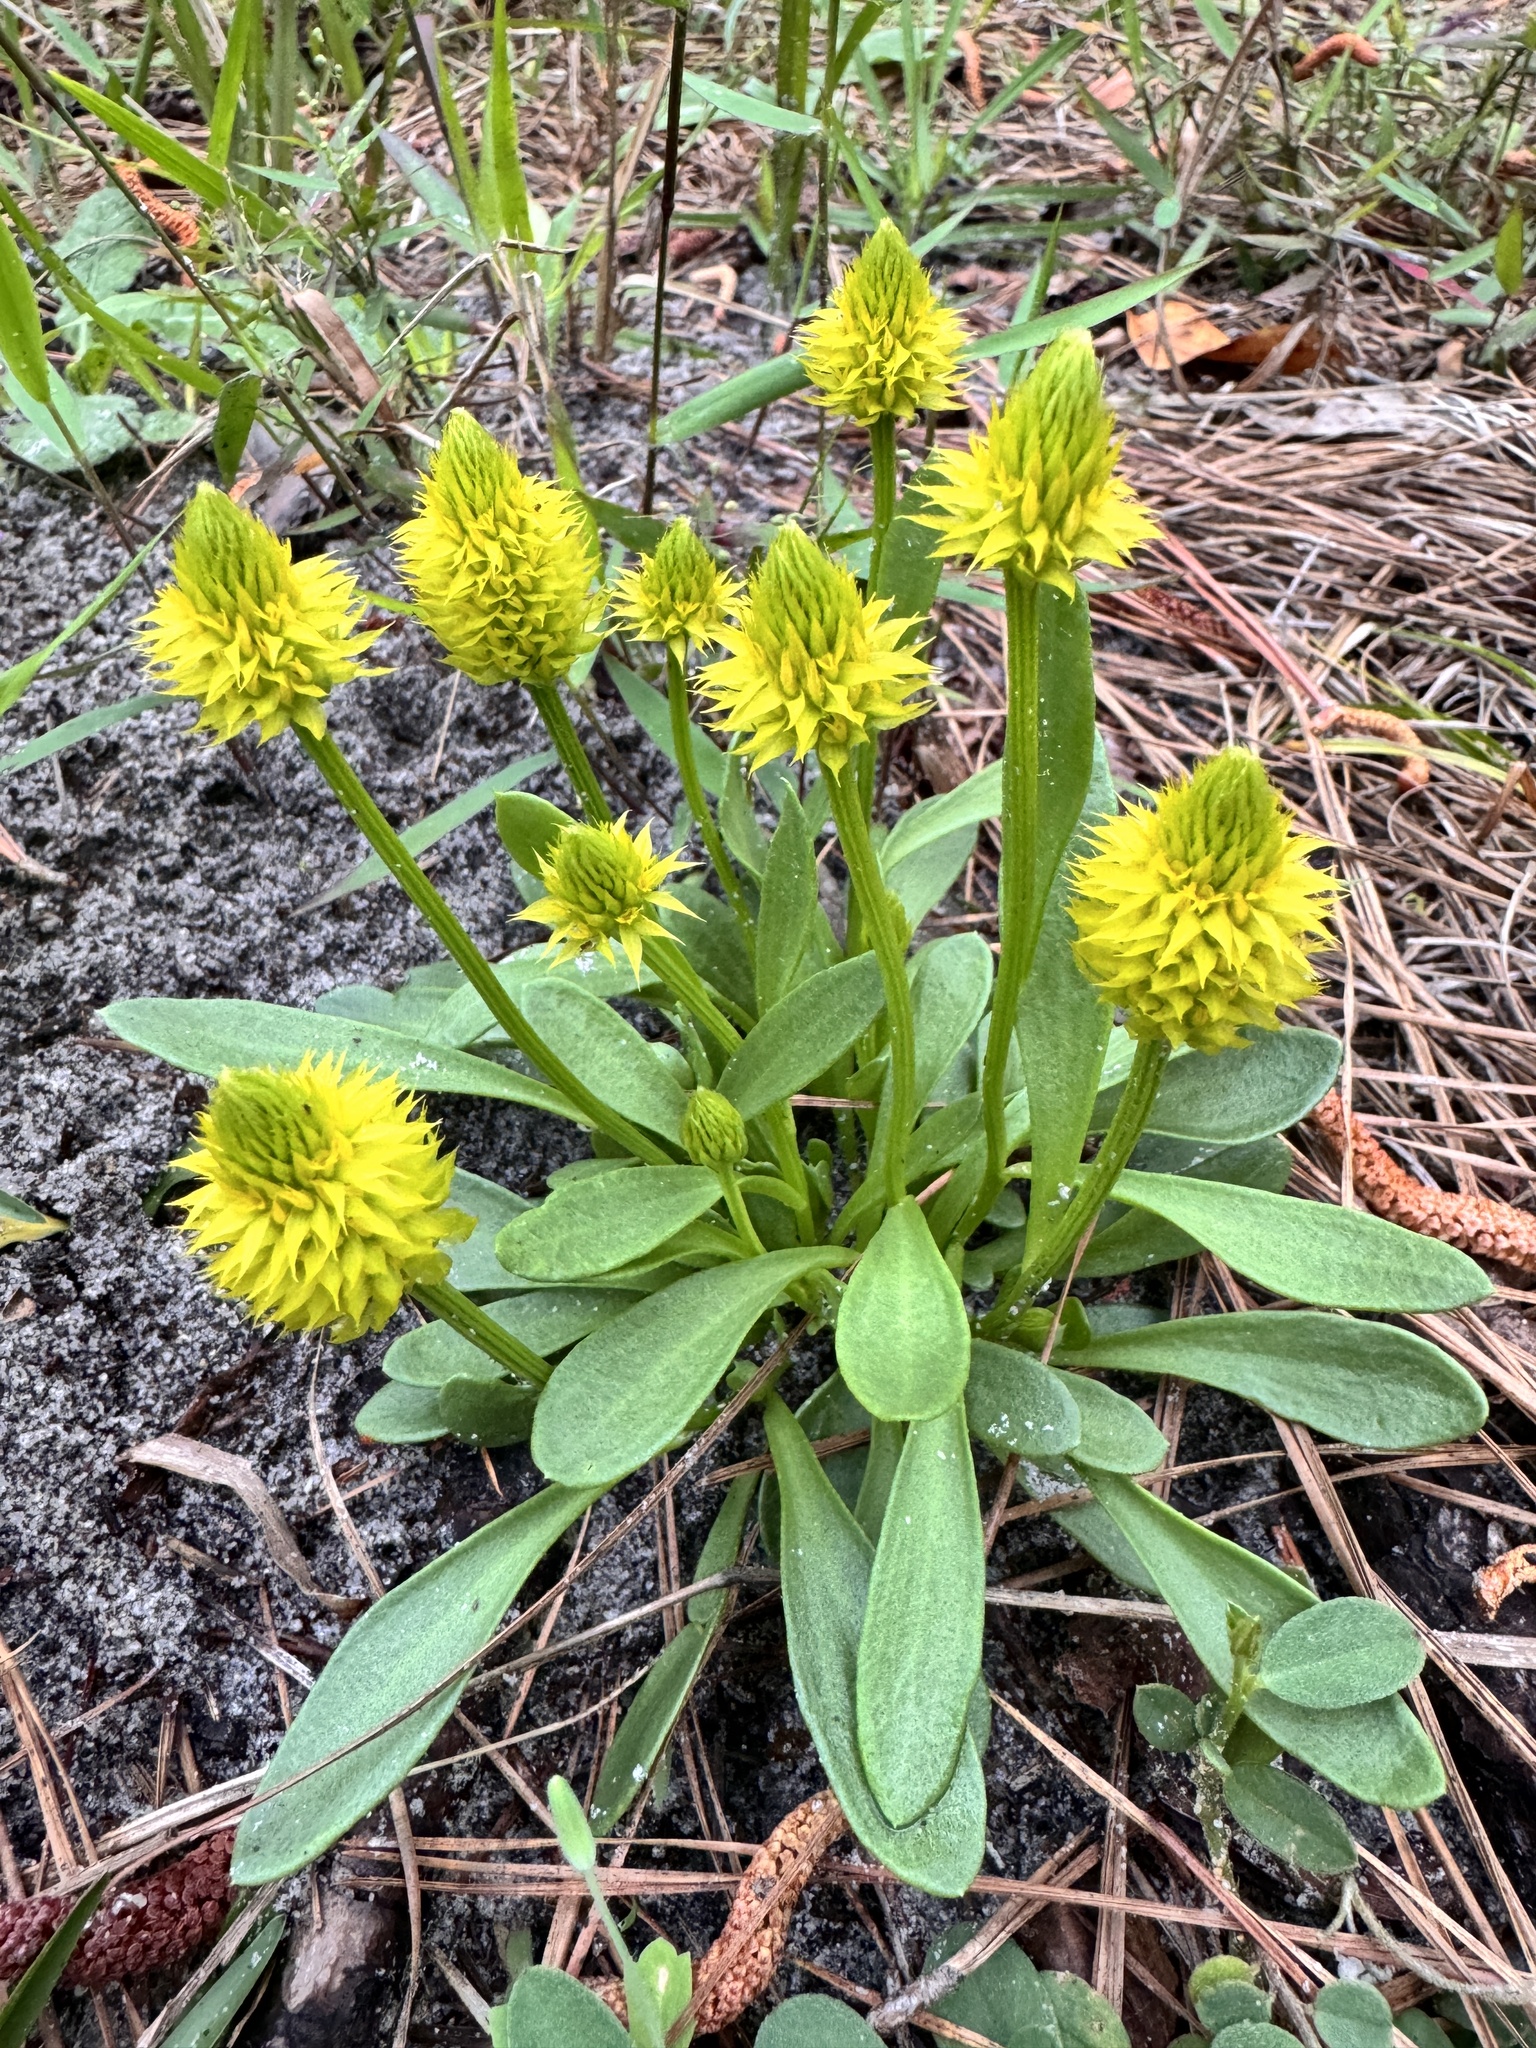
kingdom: Plantae
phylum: Tracheophyta
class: Magnoliopsida
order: Fabales
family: Polygalaceae
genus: Polygala
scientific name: Polygala nana
